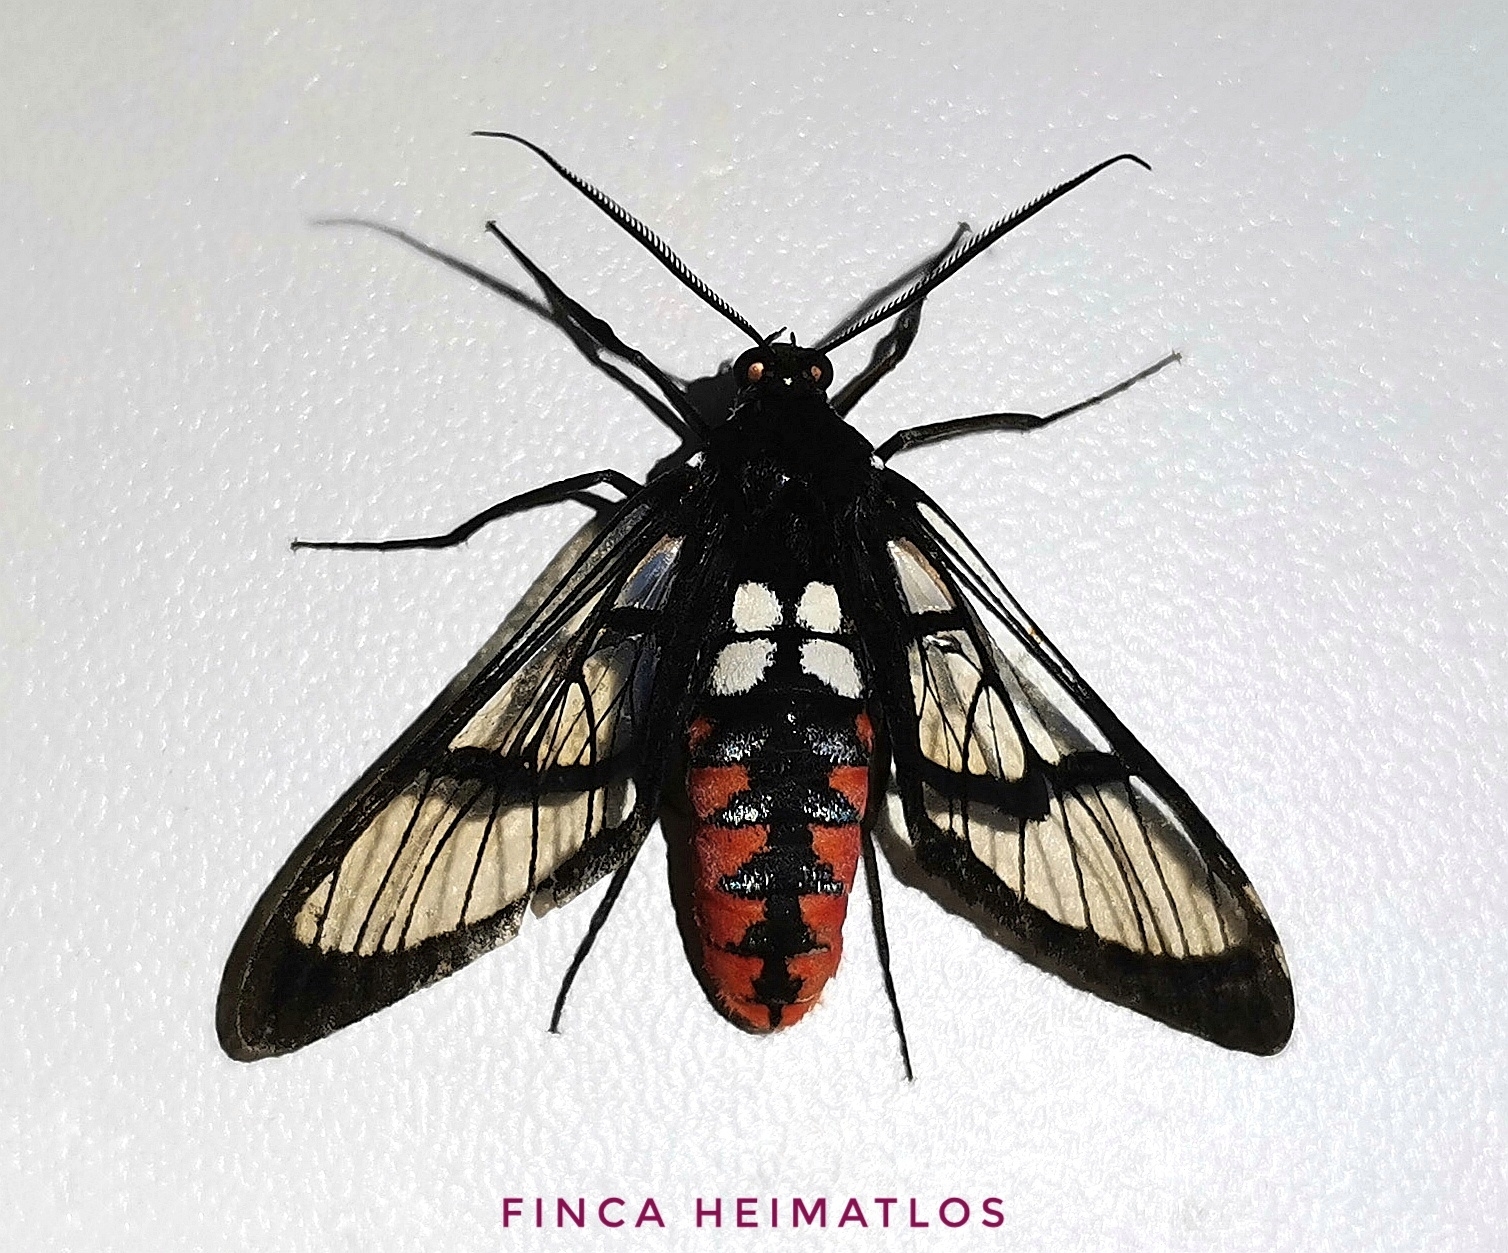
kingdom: Animalia
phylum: Arthropoda
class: Insecta
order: Lepidoptera
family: Erebidae
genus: Autochloris
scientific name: Autochloris flavipes
